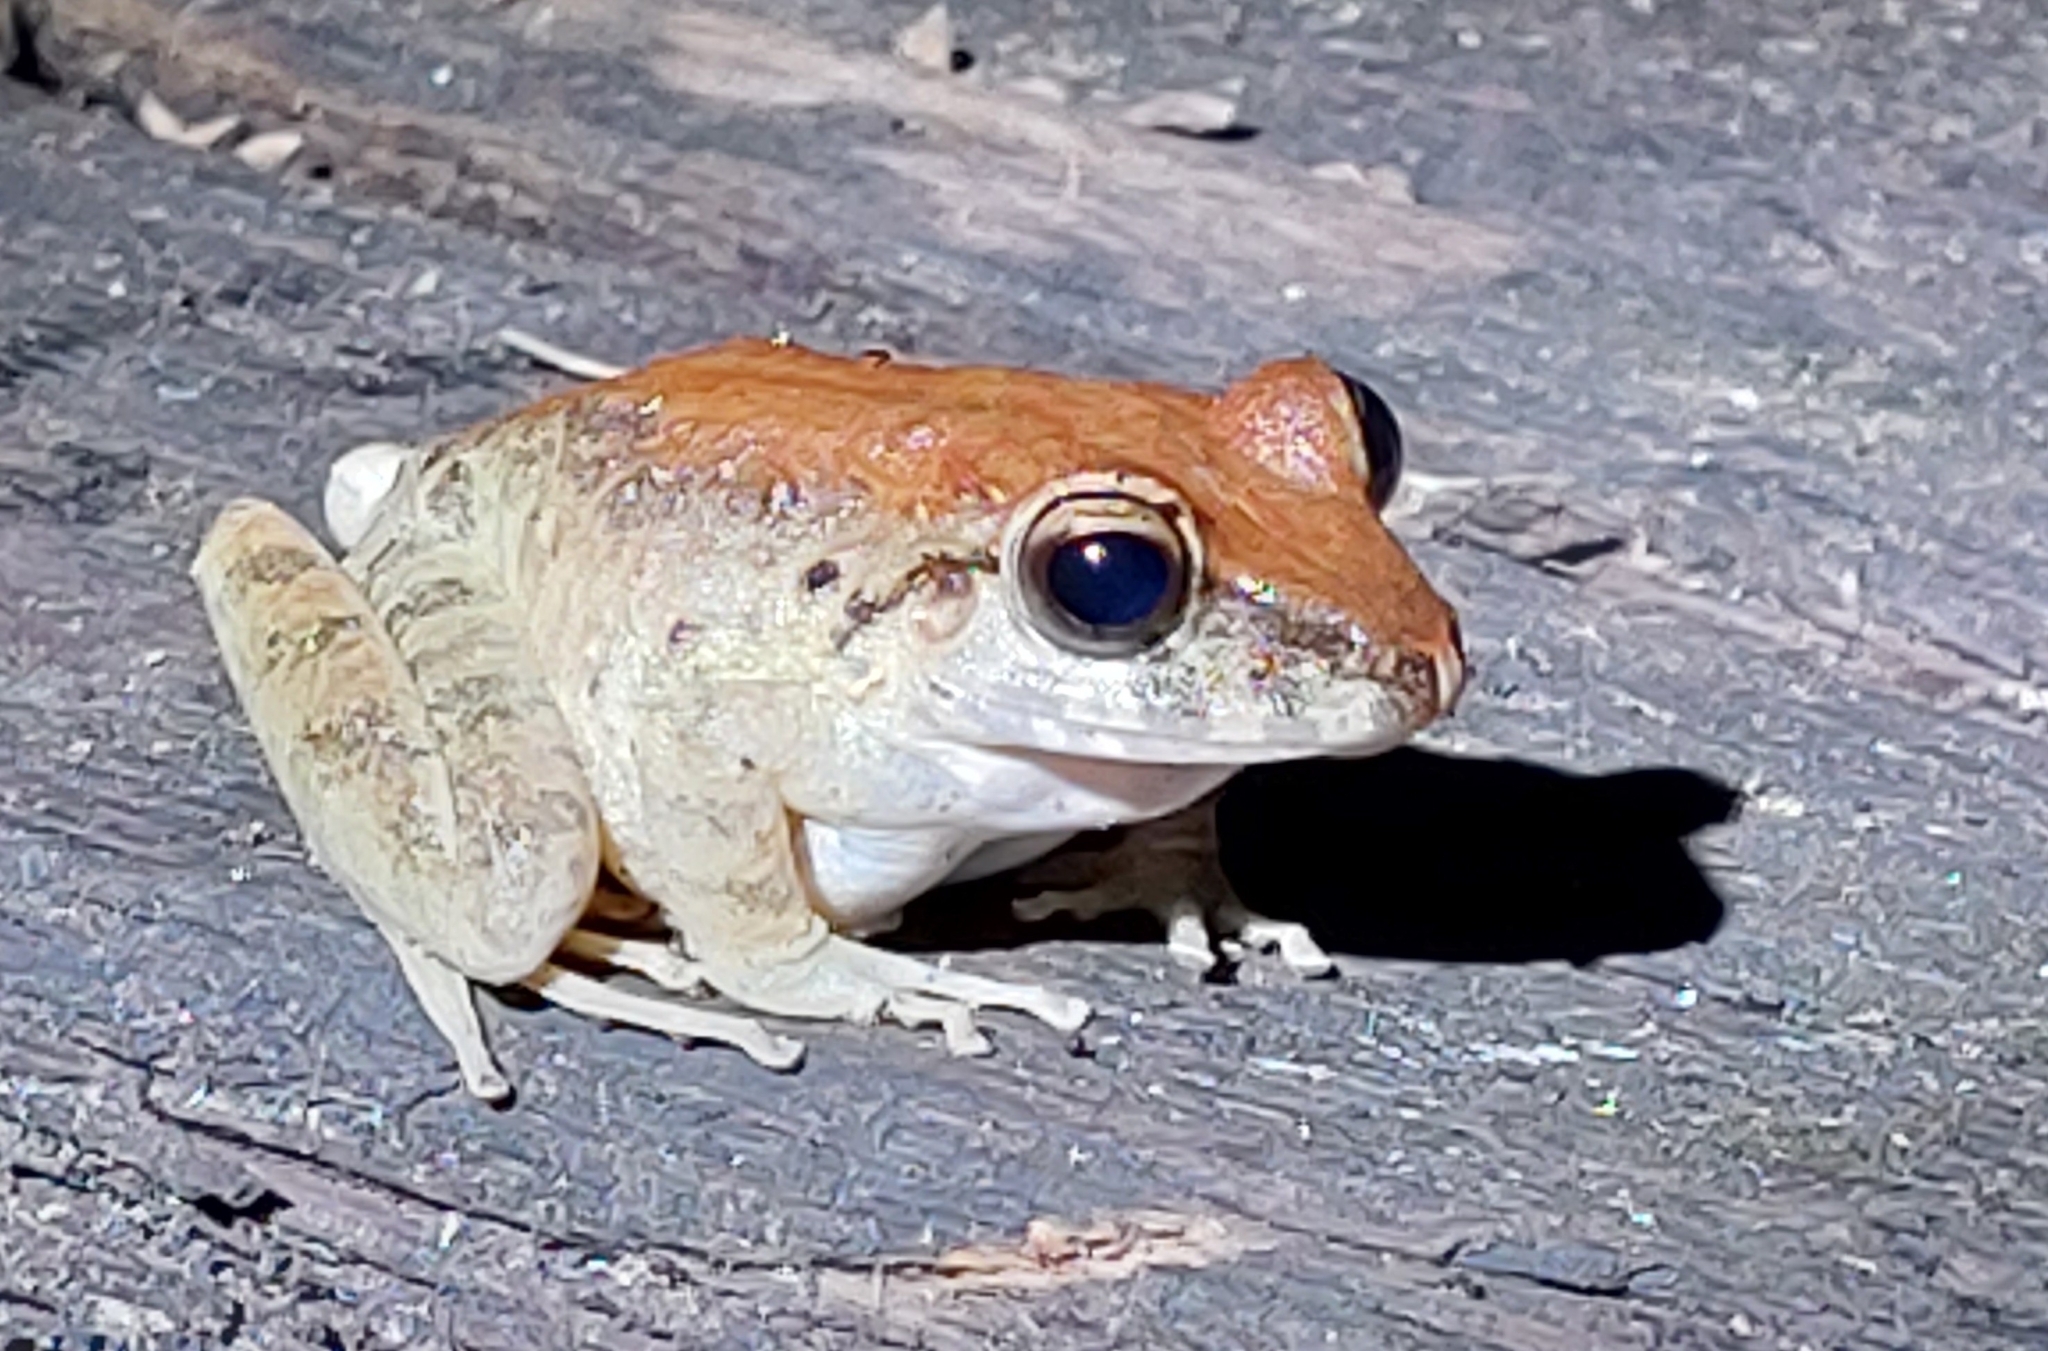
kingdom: Animalia
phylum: Chordata
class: Amphibia
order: Anura
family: Craugastoridae
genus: Craugastor
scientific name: Craugastor fitzingeri
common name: Fitzinger's robber frog
